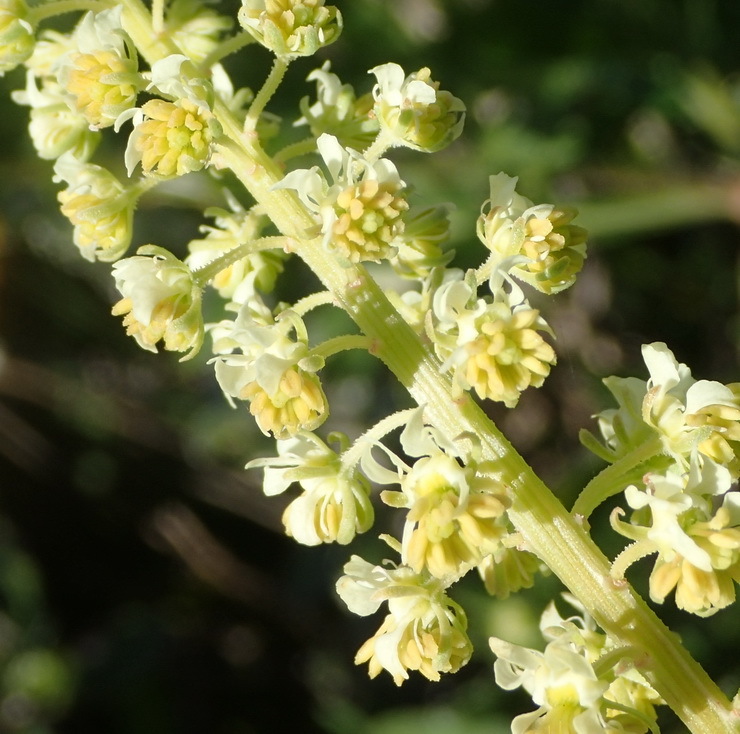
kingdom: Plantae
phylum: Tracheophyta
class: Magnoliopsida
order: Brassicales
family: Resedaceae
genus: Reseda
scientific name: Reseda lutea
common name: Wild mignonette
